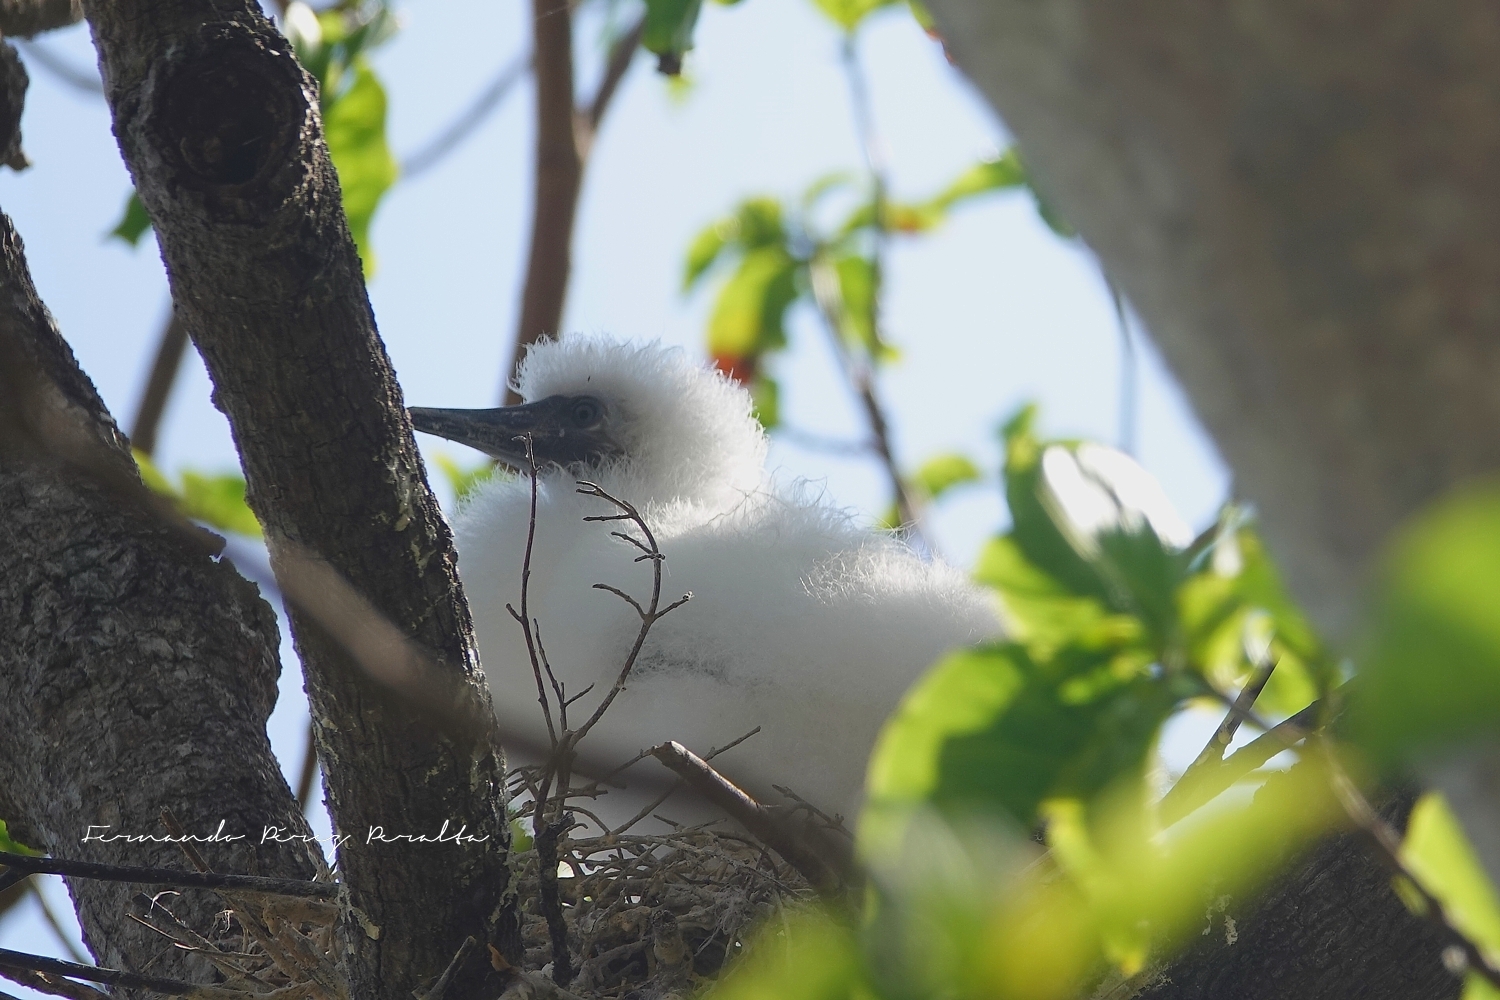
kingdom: Animalia
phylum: Chordata
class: Aves
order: Suliformes
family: Sulidae
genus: Sula
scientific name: Sula sula
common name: Red-footed booby
